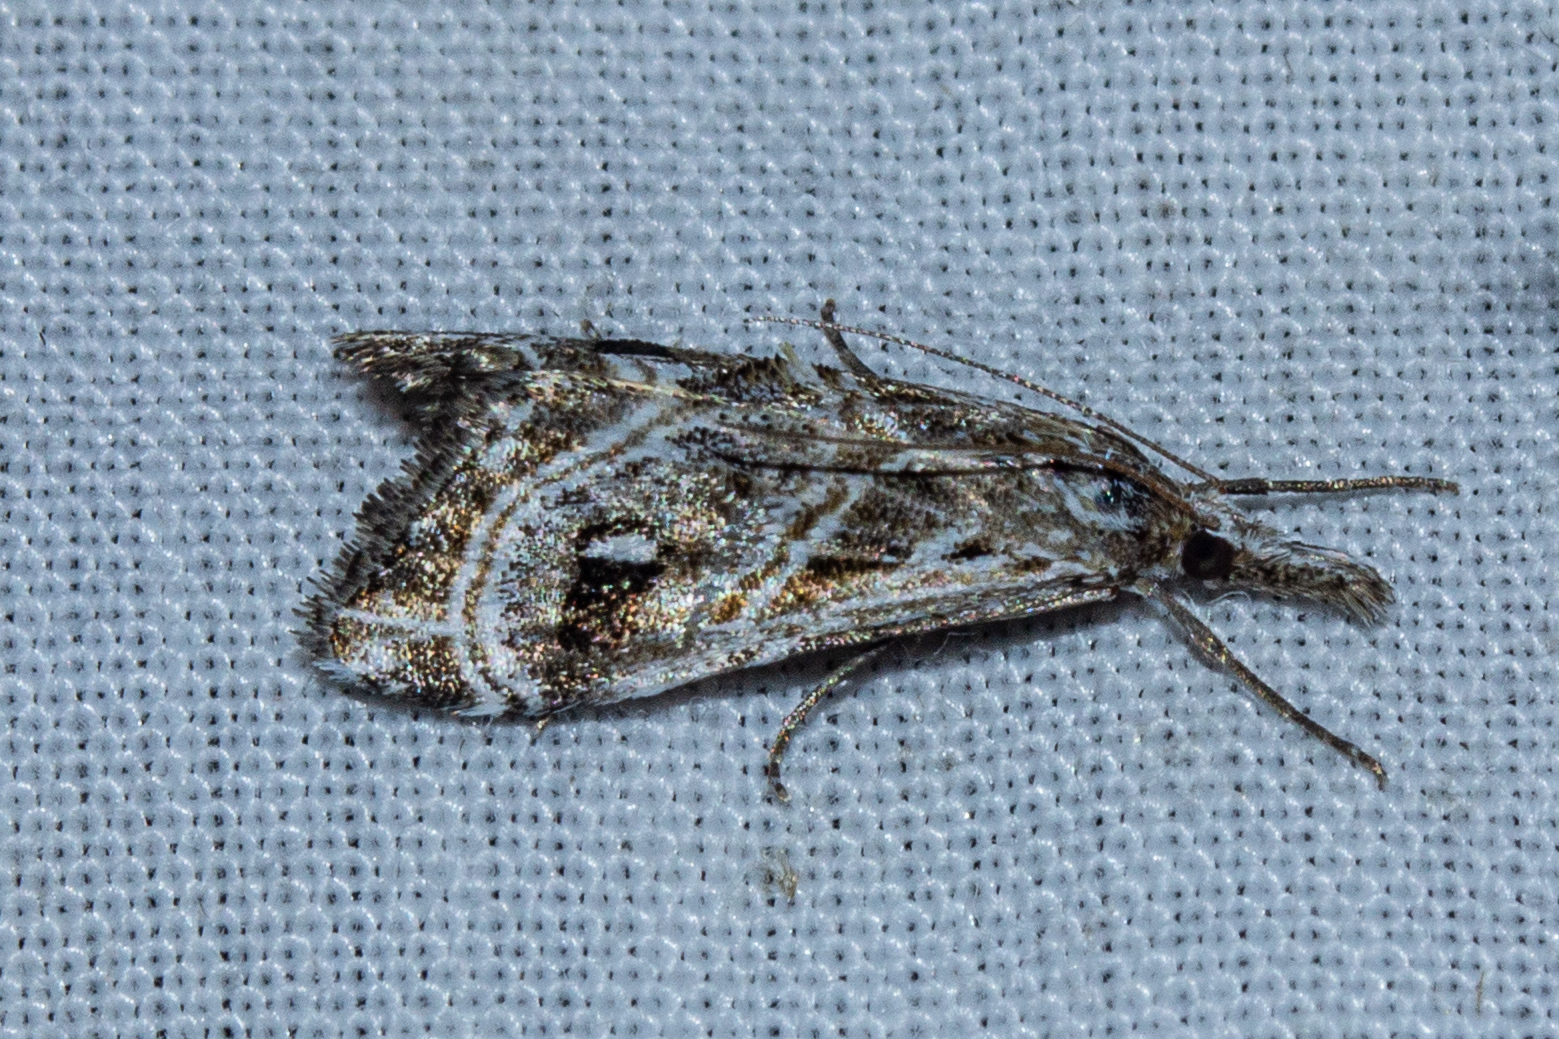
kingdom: Animalia
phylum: Arthropoda
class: Insecta
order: Lepidoptera
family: Crambidae
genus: Gadira
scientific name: Gadira acerella
